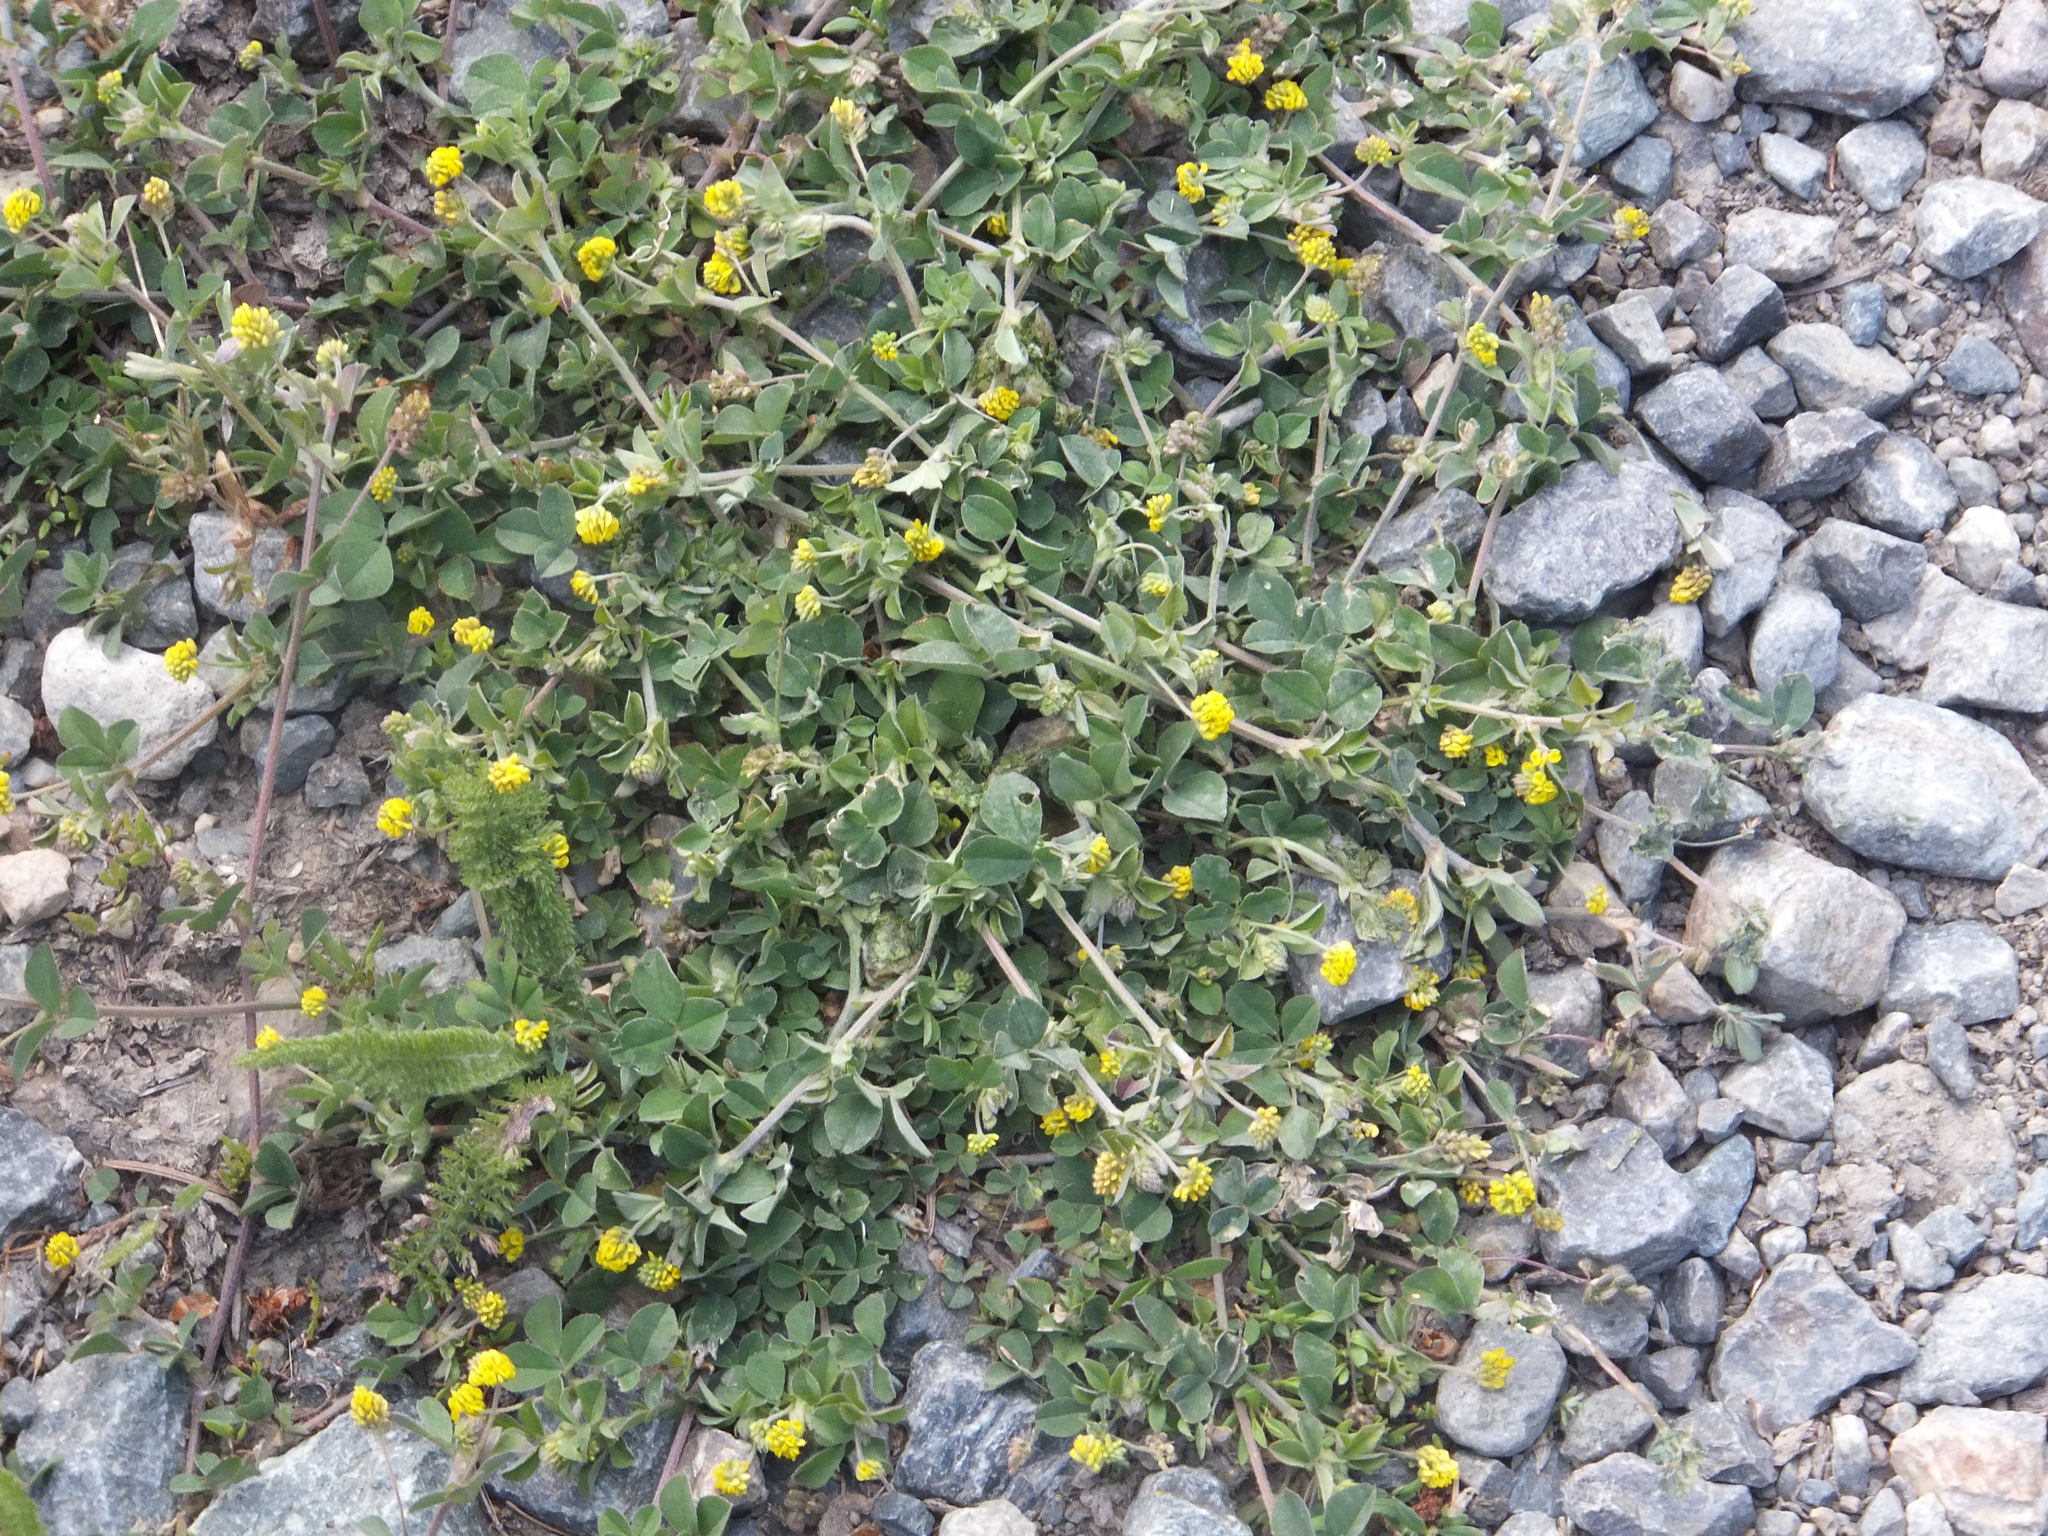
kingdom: Plantae
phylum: Tracheophyta
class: Magnoliopsida
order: Fabales
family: Fabaceae
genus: Medicago
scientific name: Medicago lupulina
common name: Black medick
